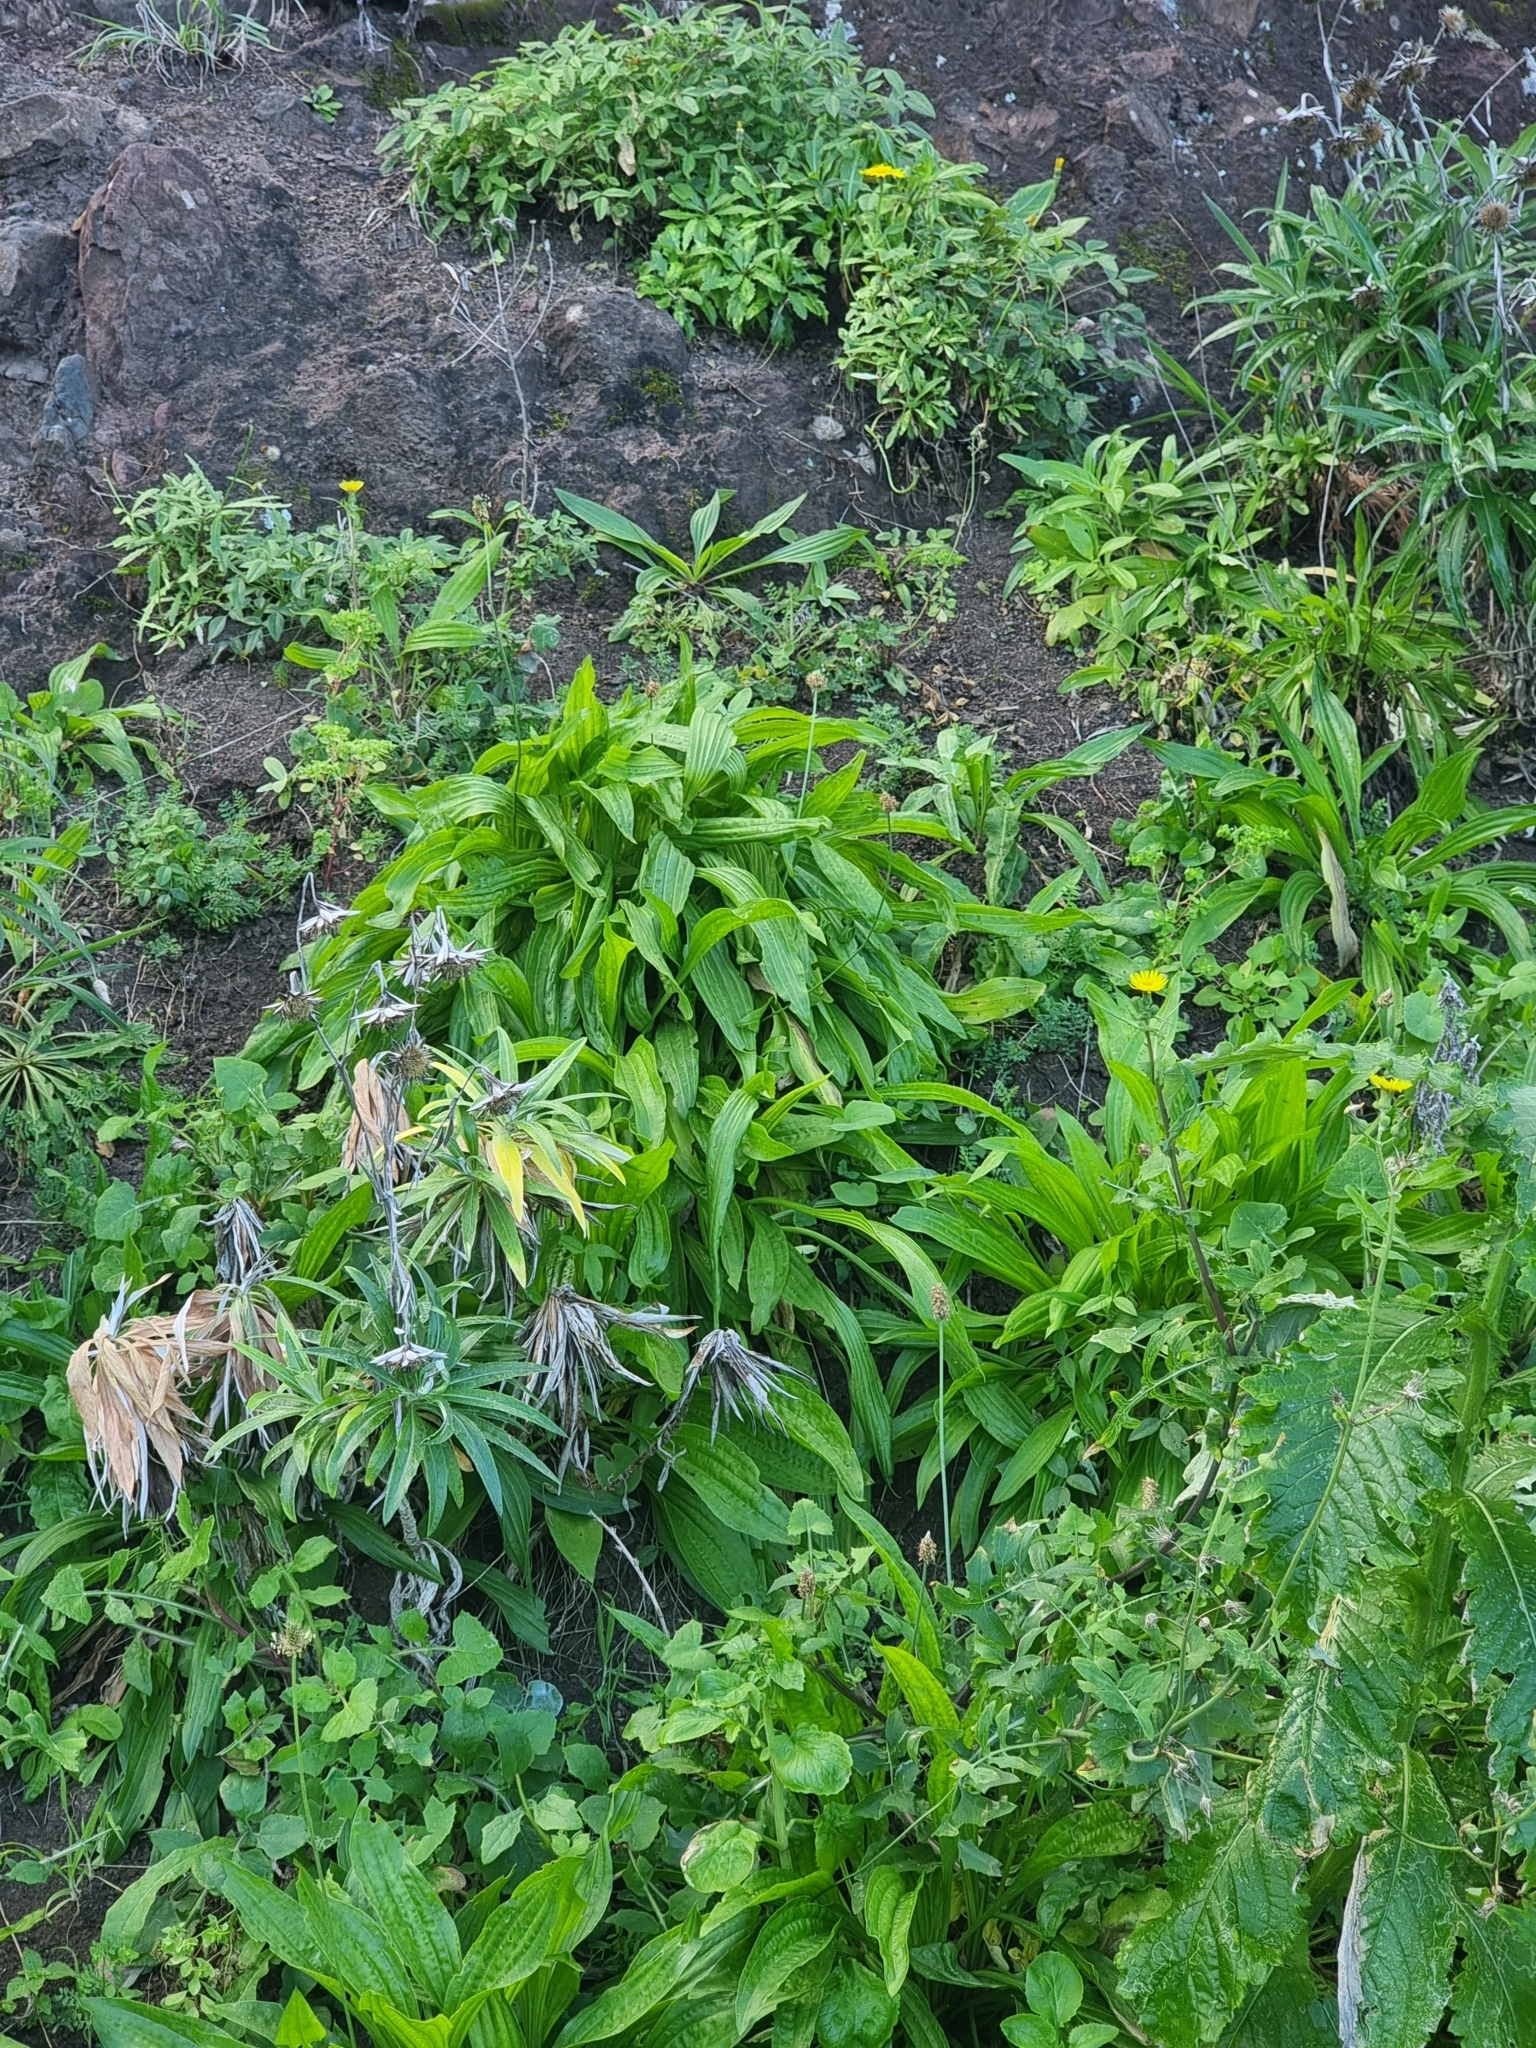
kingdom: Plantae
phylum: Tracheophyta
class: Magnoliopsida
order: Lamiales
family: Plantaginaceae
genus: Plantago
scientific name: Plantago lanceolata
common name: Ribwort plantain
